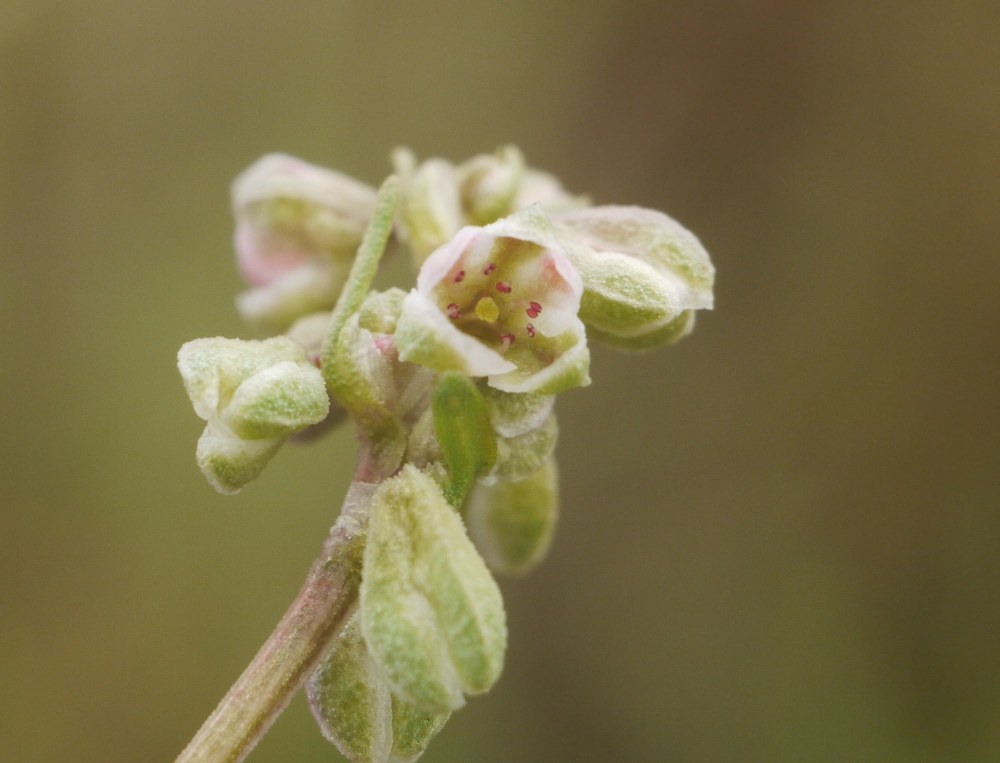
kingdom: Plantae
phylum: Tracheophyta
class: Magnoliopsida
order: Caryophyllales
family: Polygonaceae
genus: Fallopia
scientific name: Fallopia convolvulus
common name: Black bindweed
